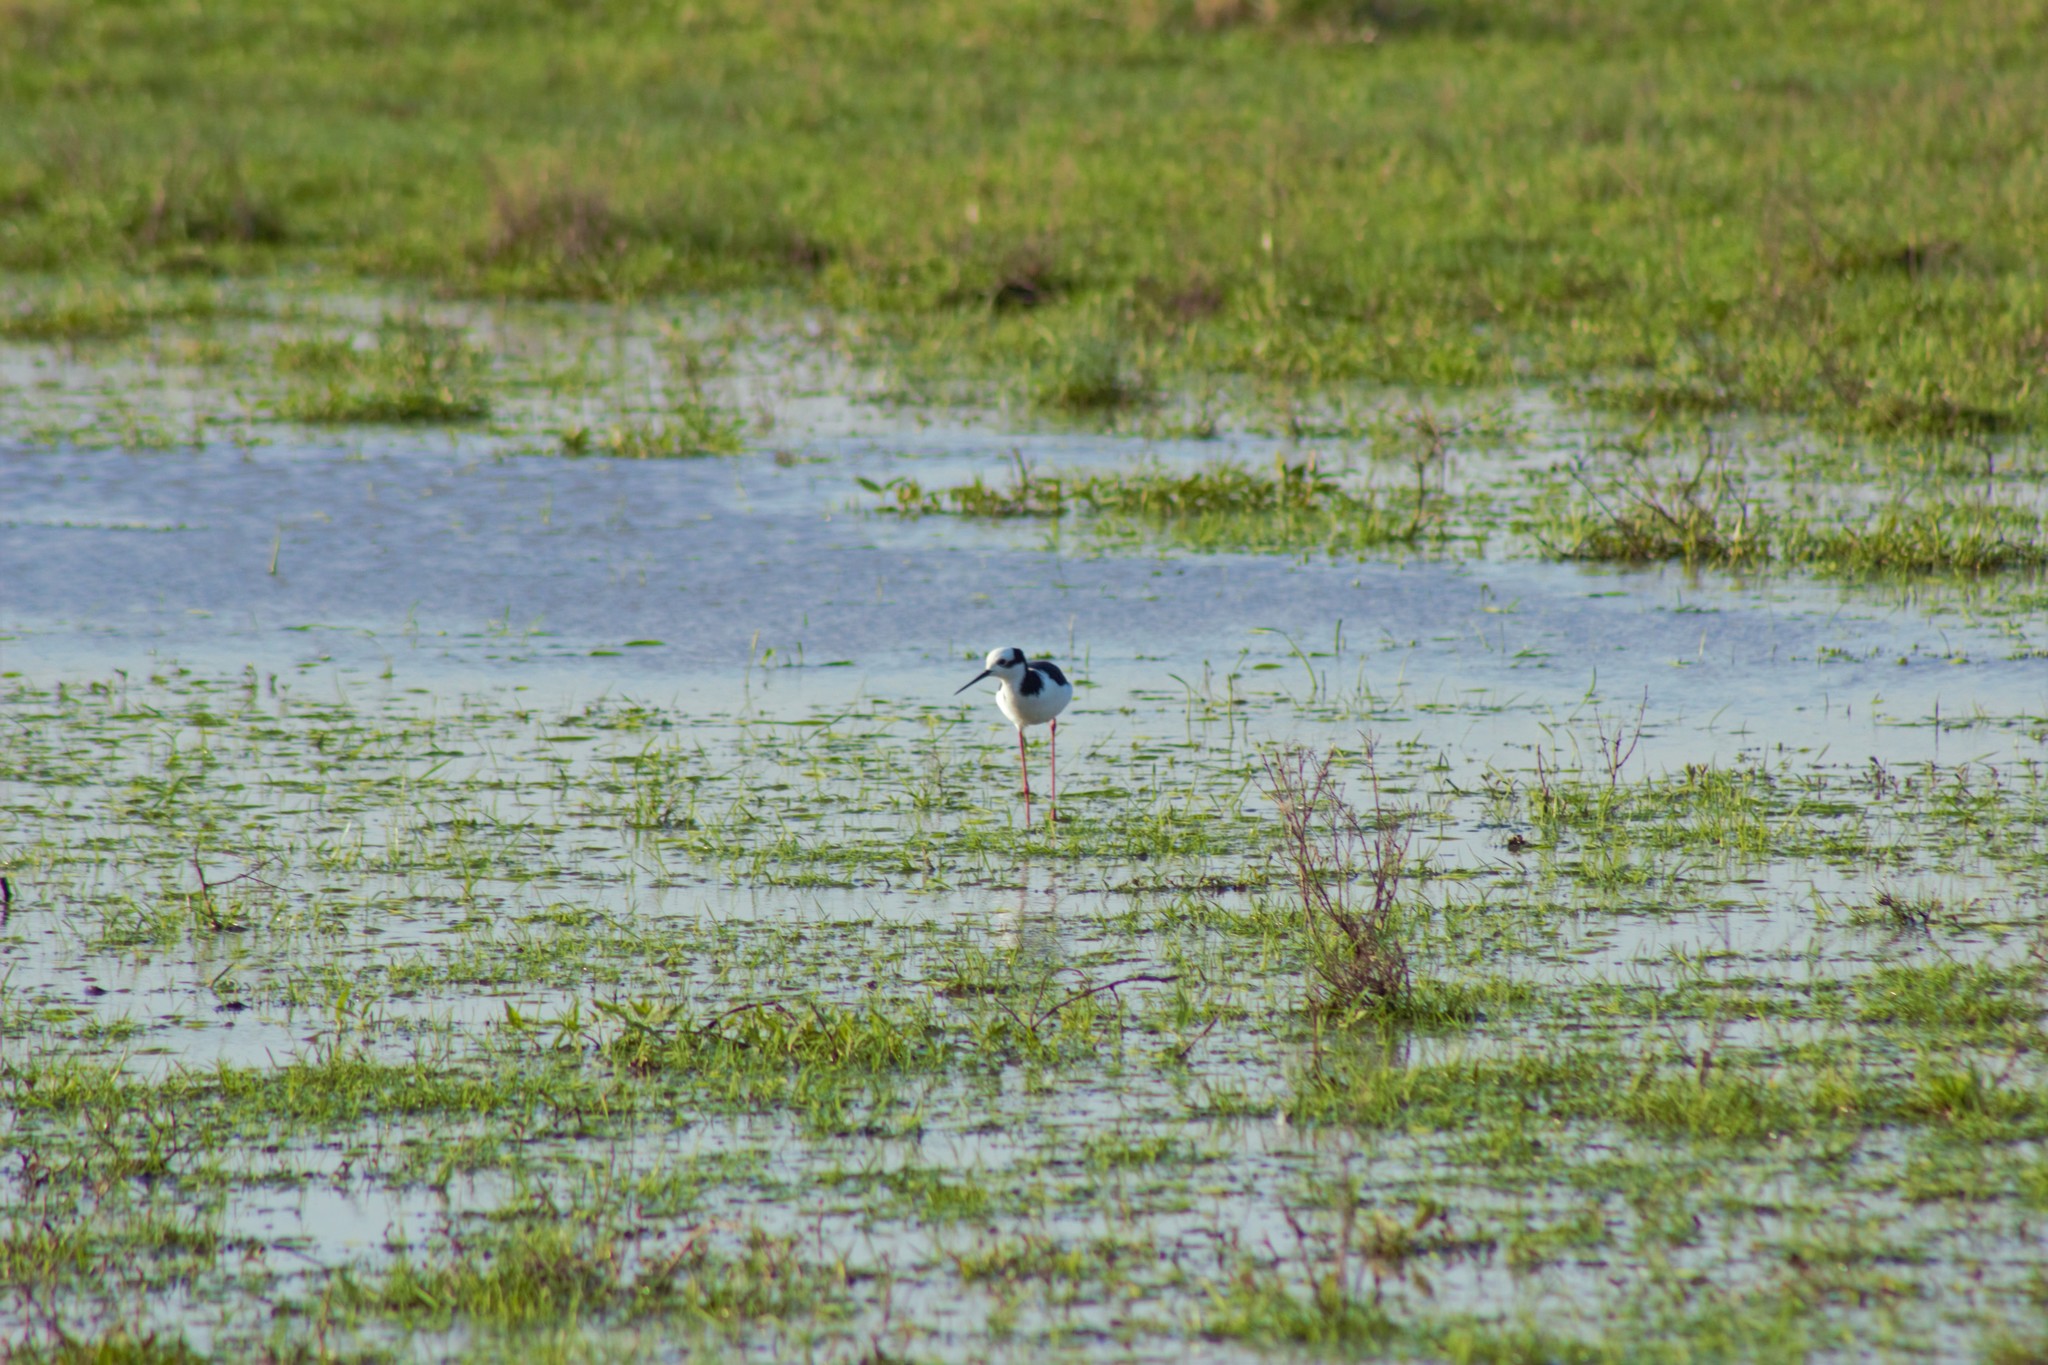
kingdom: Animalia
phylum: Chordata
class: Aves
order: Charadriiformes
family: Recurvirostridae
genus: Himantopus
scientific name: Himantopus mexicanus
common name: Black-necked stilt
